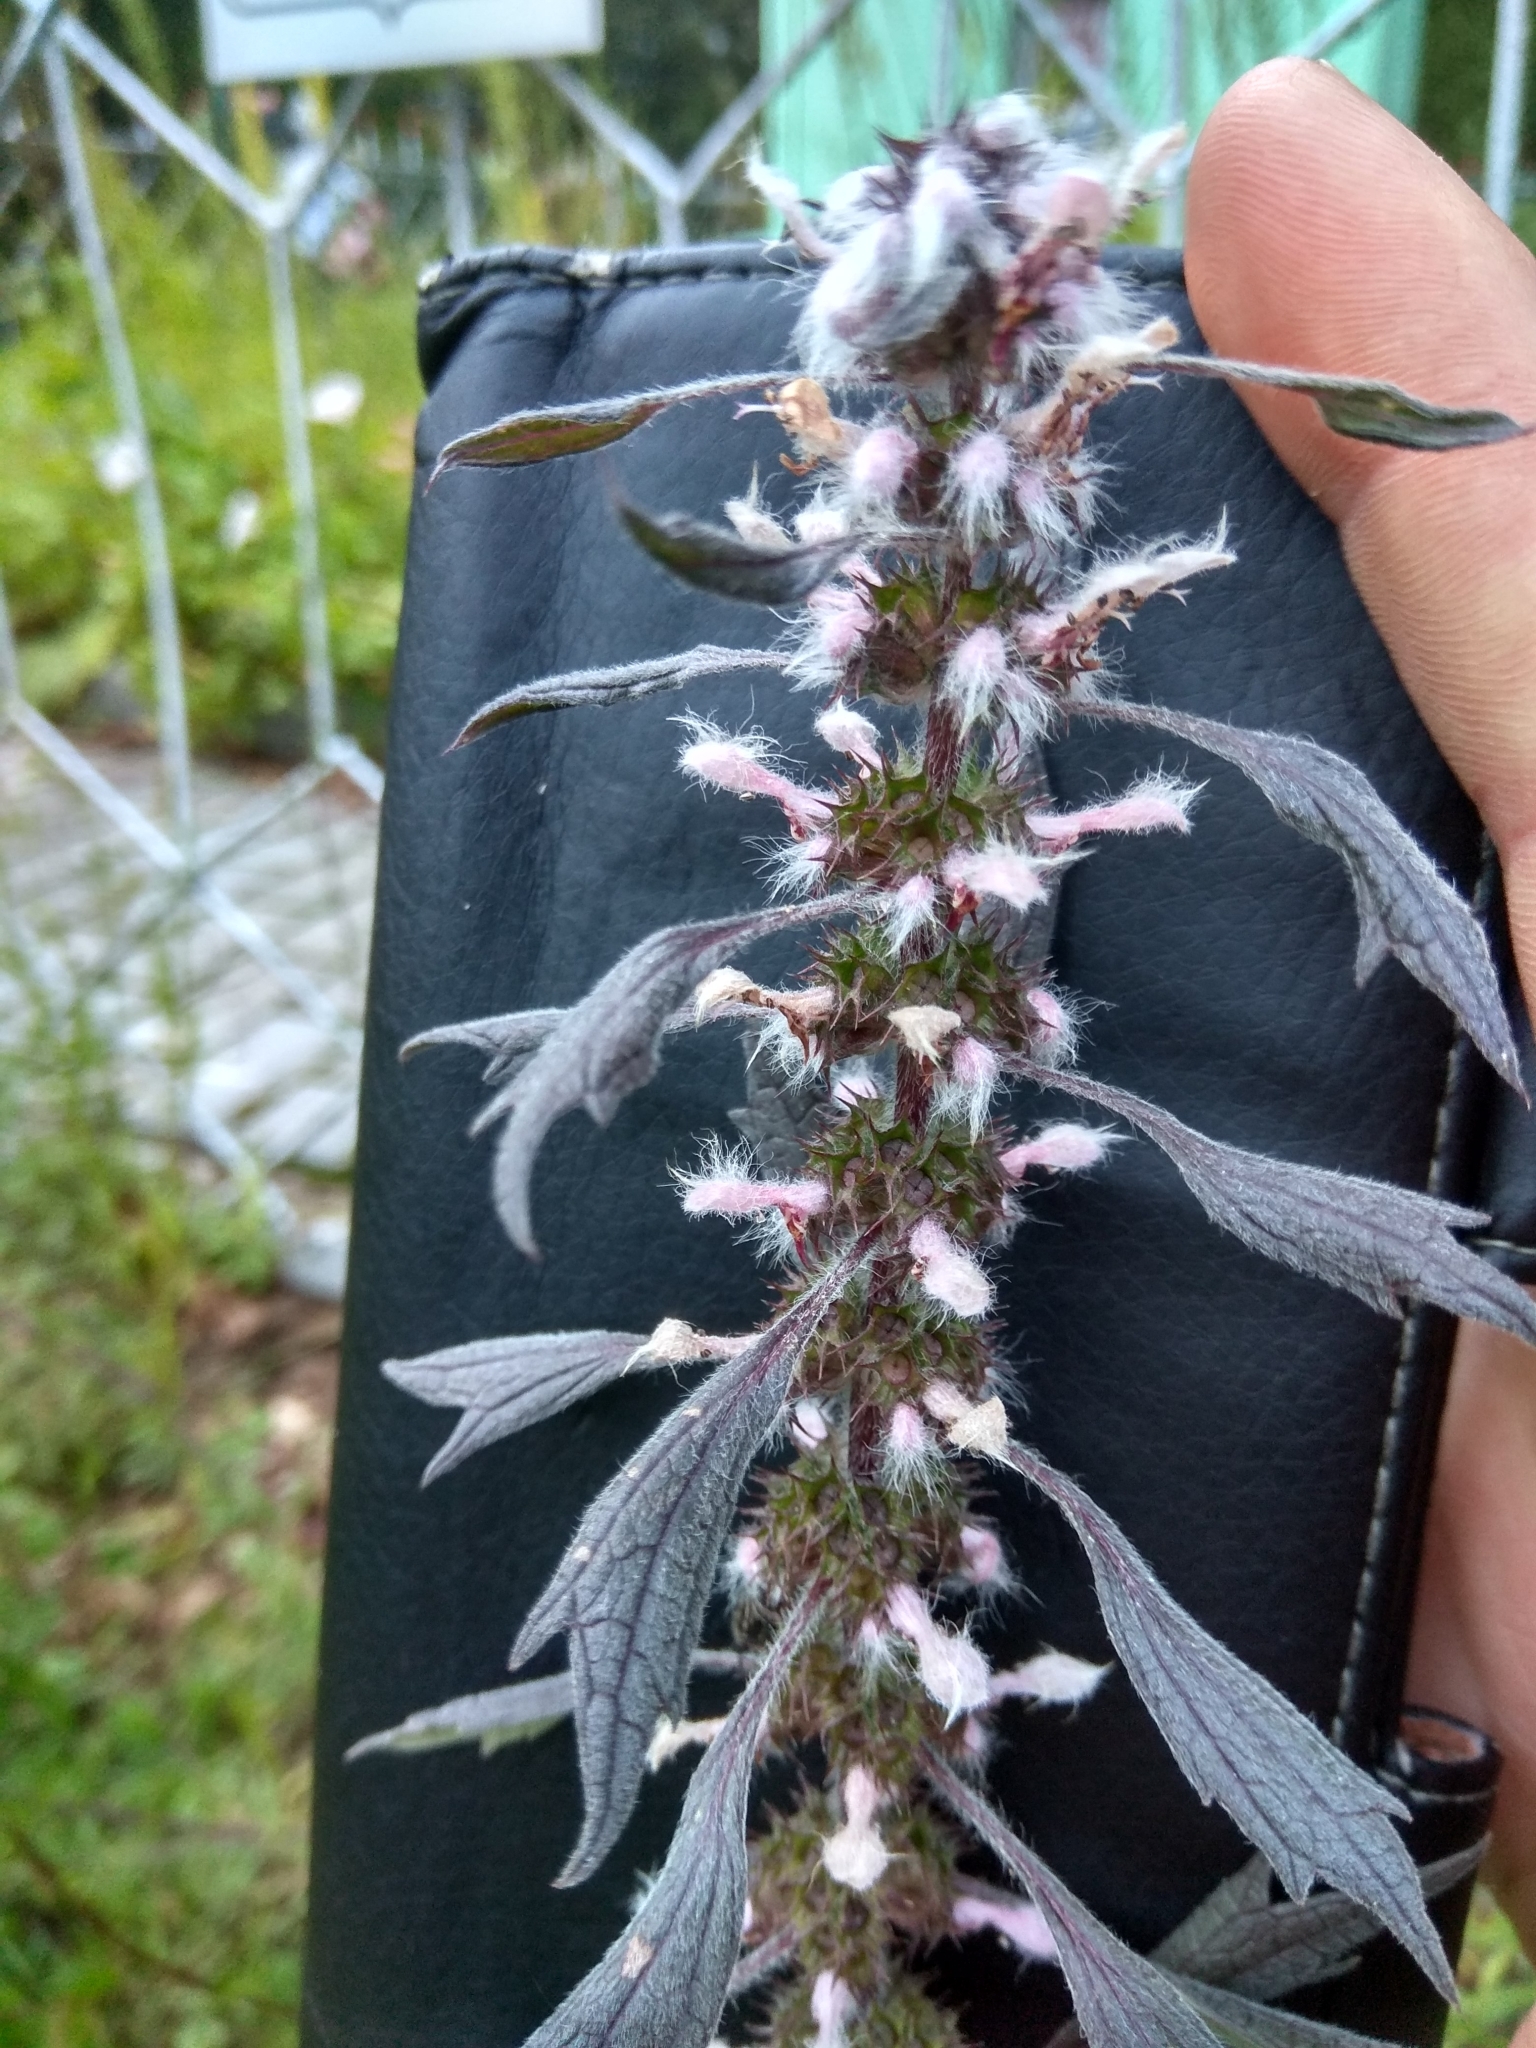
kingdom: Plantae
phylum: Tracheophyta
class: Magnoliopsida
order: Lamiales
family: Lamiaceae
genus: Leonurus
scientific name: Leonurus quinquelobatus
